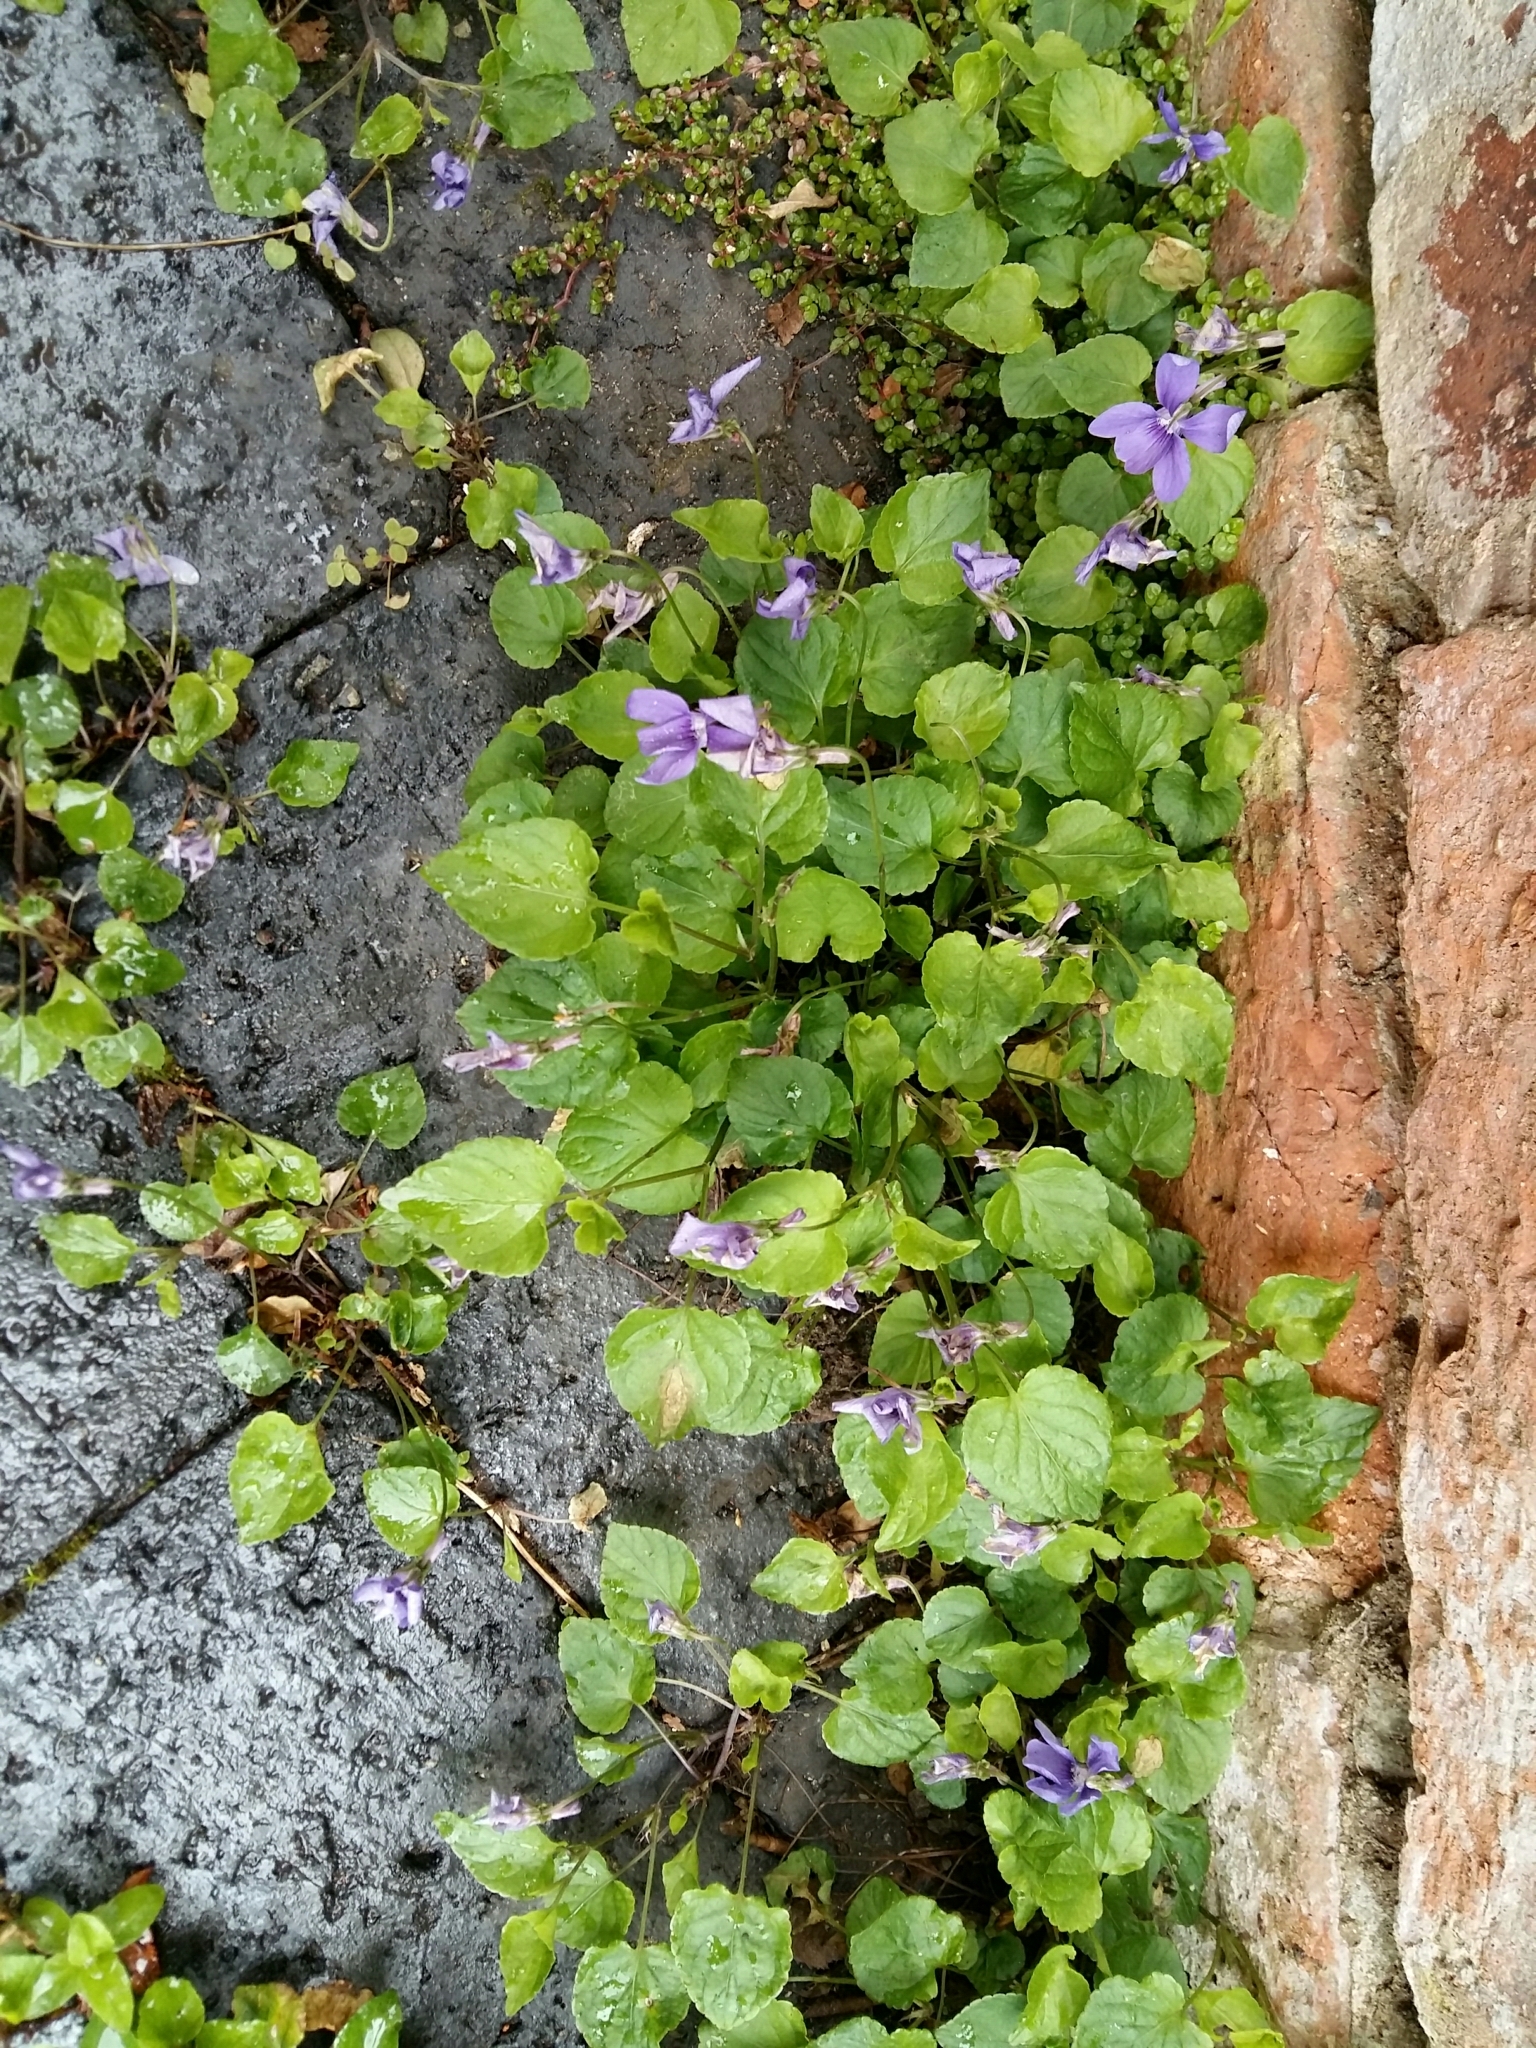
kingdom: Plantae
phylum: Tracheophyta
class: Magnoliopsida
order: Malpighiales
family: Violaceae
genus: Viola
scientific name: Viola riviniana
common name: Common dog-violet
